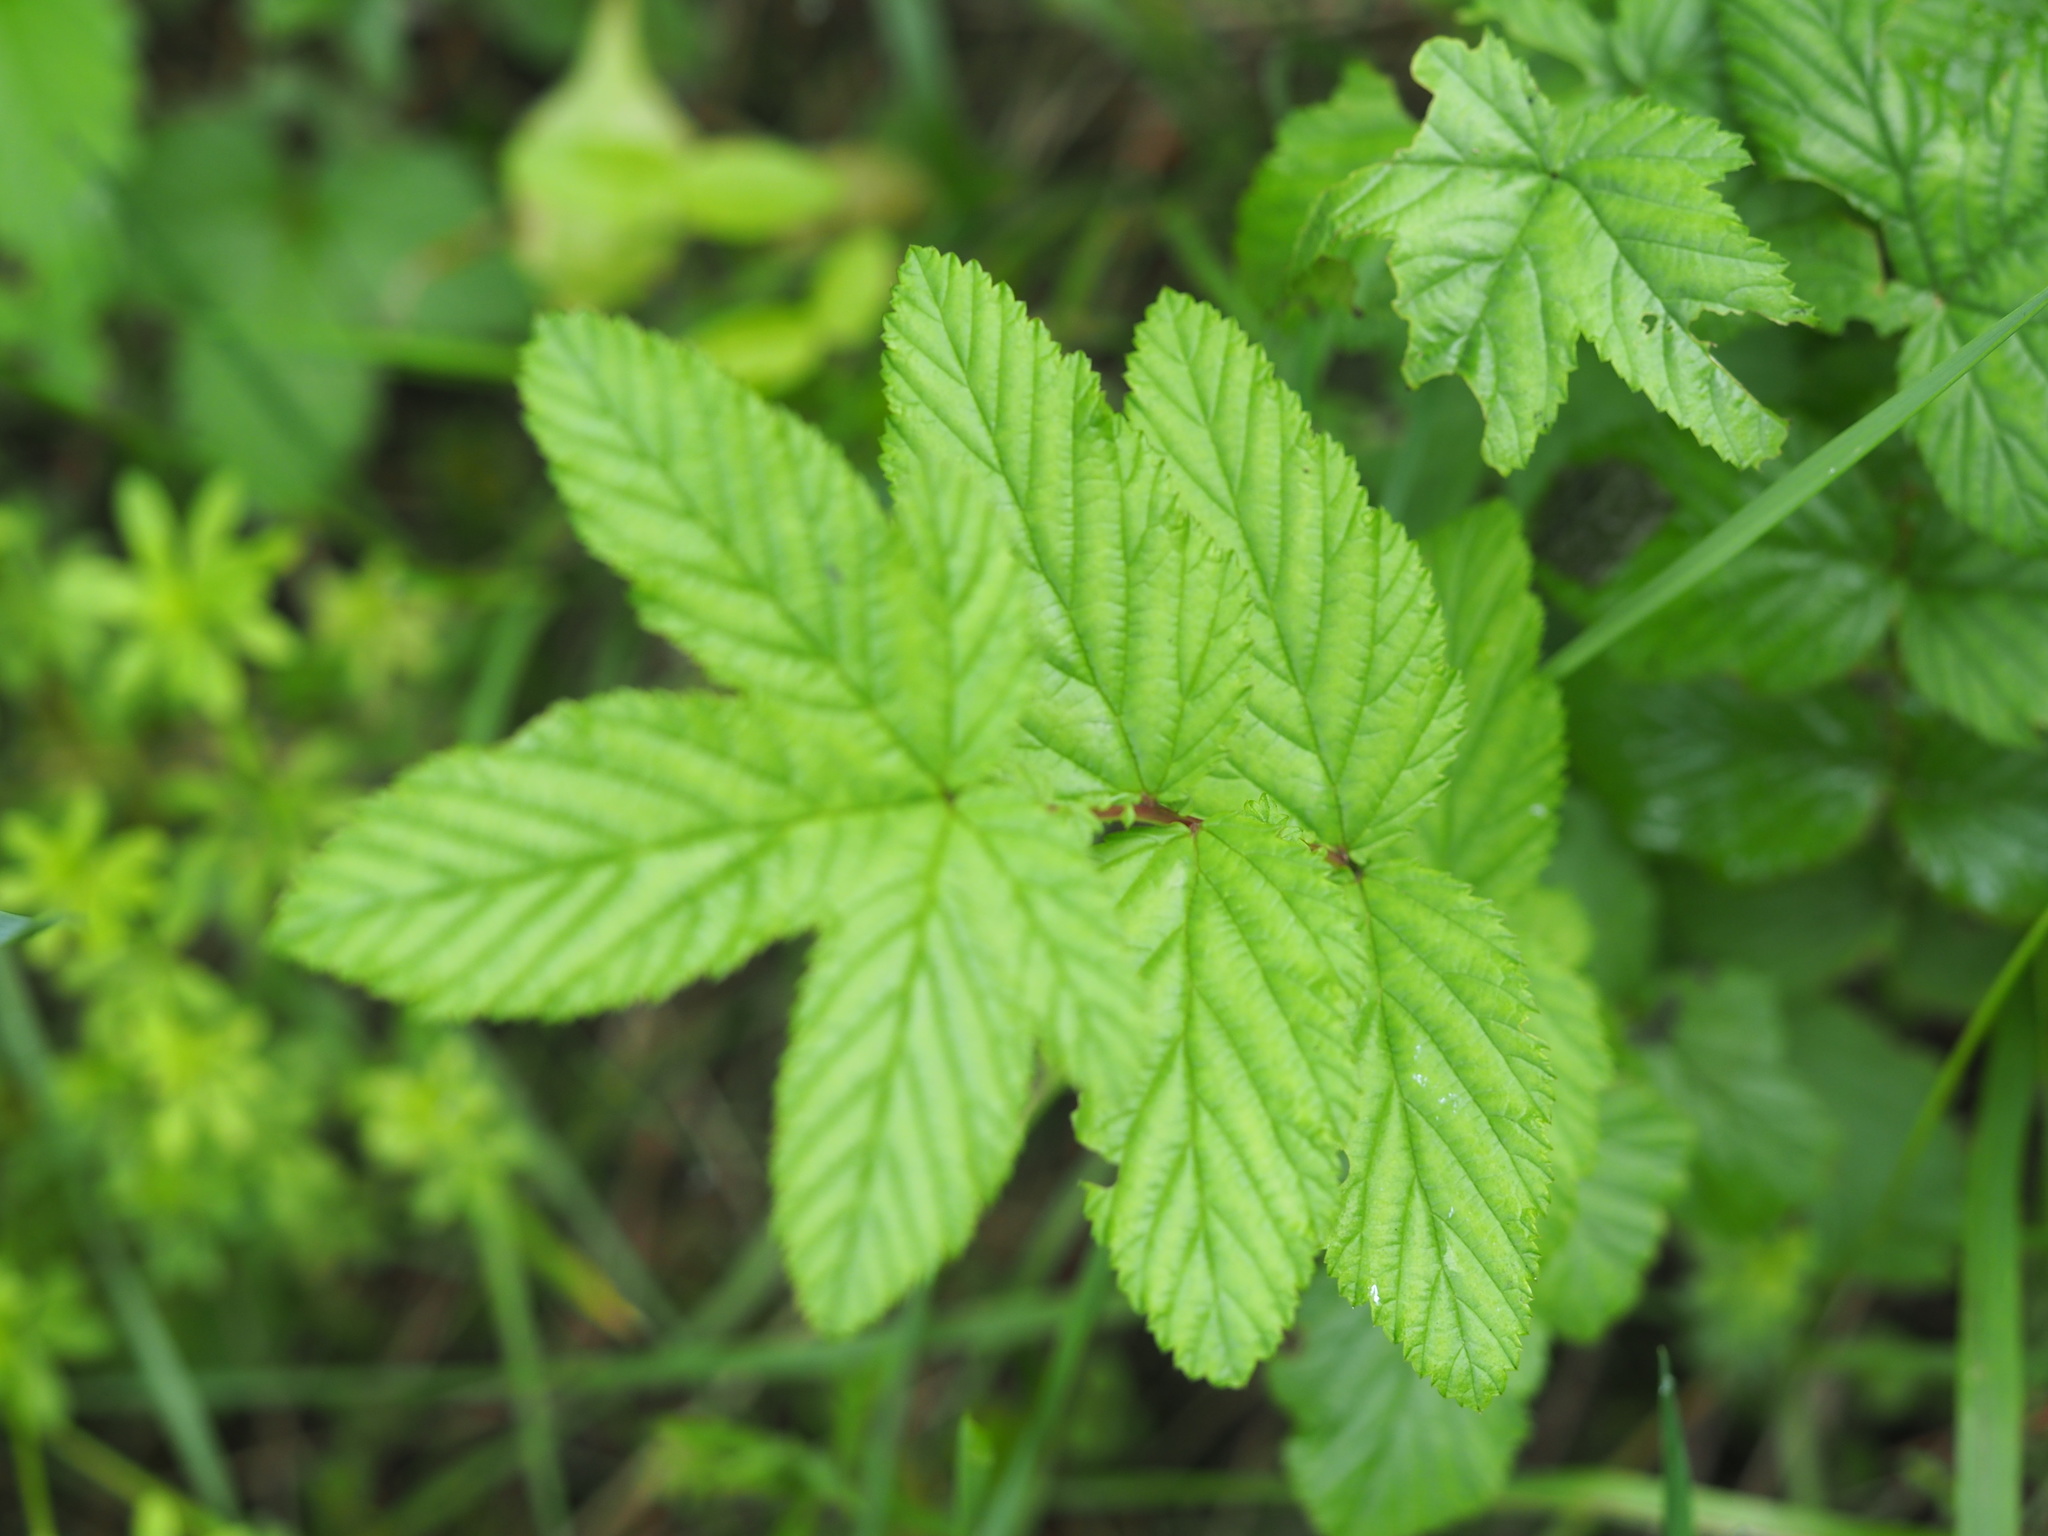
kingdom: Plantae
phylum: Tracheophyta
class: Magnoliopsida
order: Rosales
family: Rosaceae
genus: Filipendula
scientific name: Filipendula ulmaria
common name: Meadowsweet
